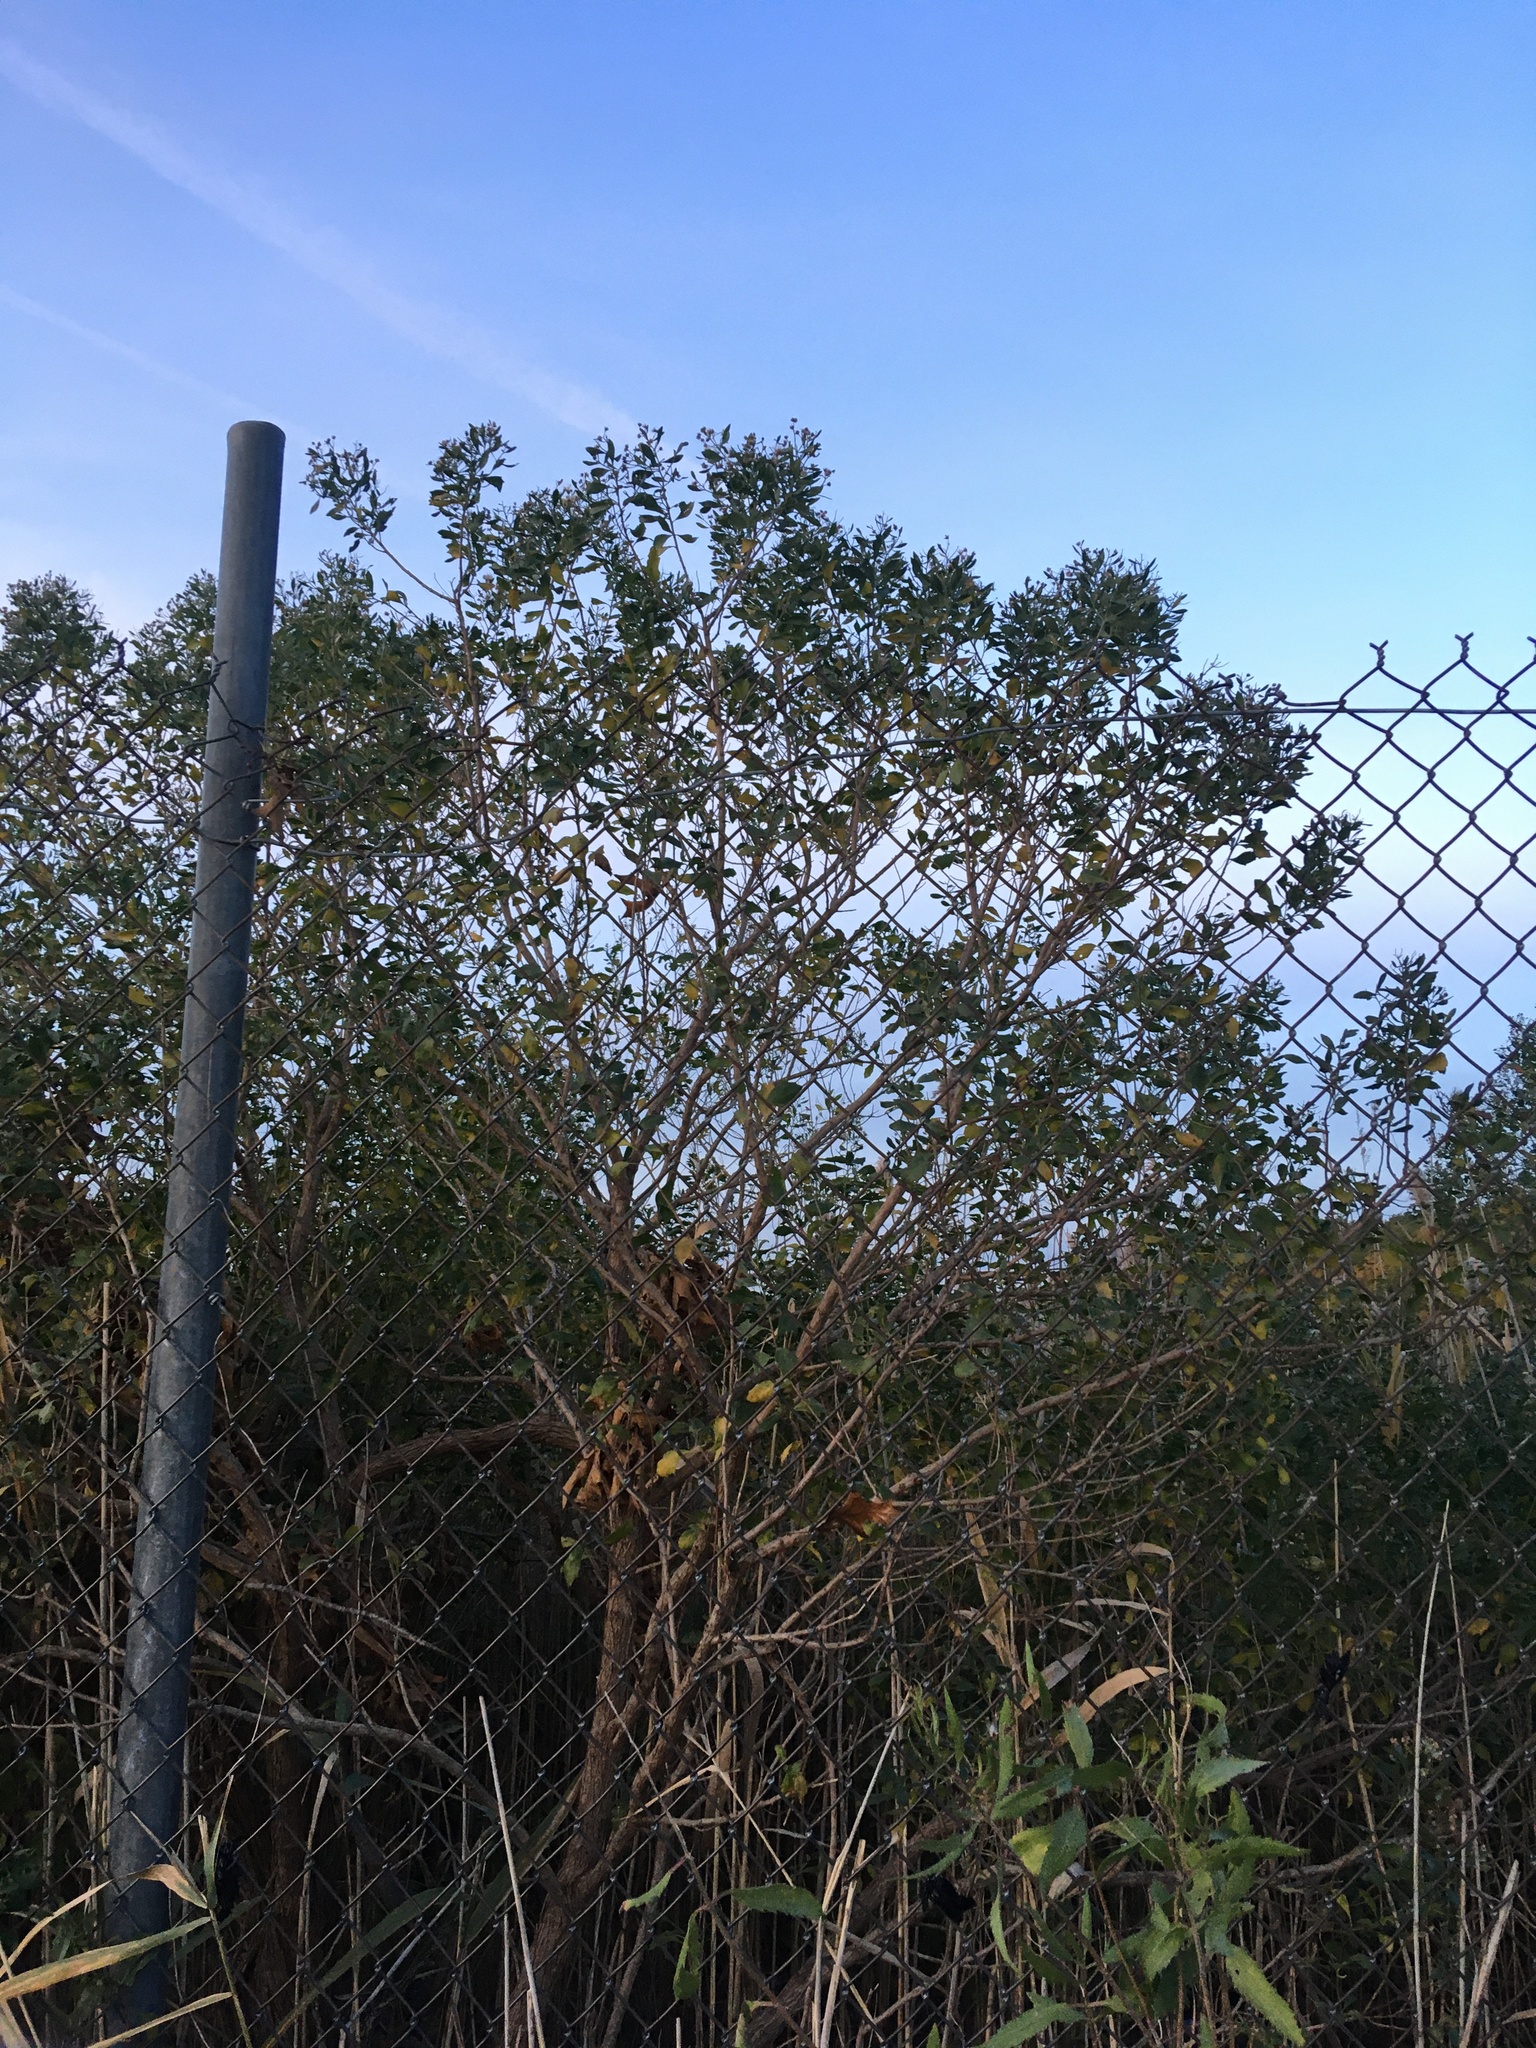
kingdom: Plantae
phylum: Tracheophyta
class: Magnoliopsida
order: Asterales
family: Asteraceae
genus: Baccharis
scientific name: Baccharis halimifolia
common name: Eastern baccharis
